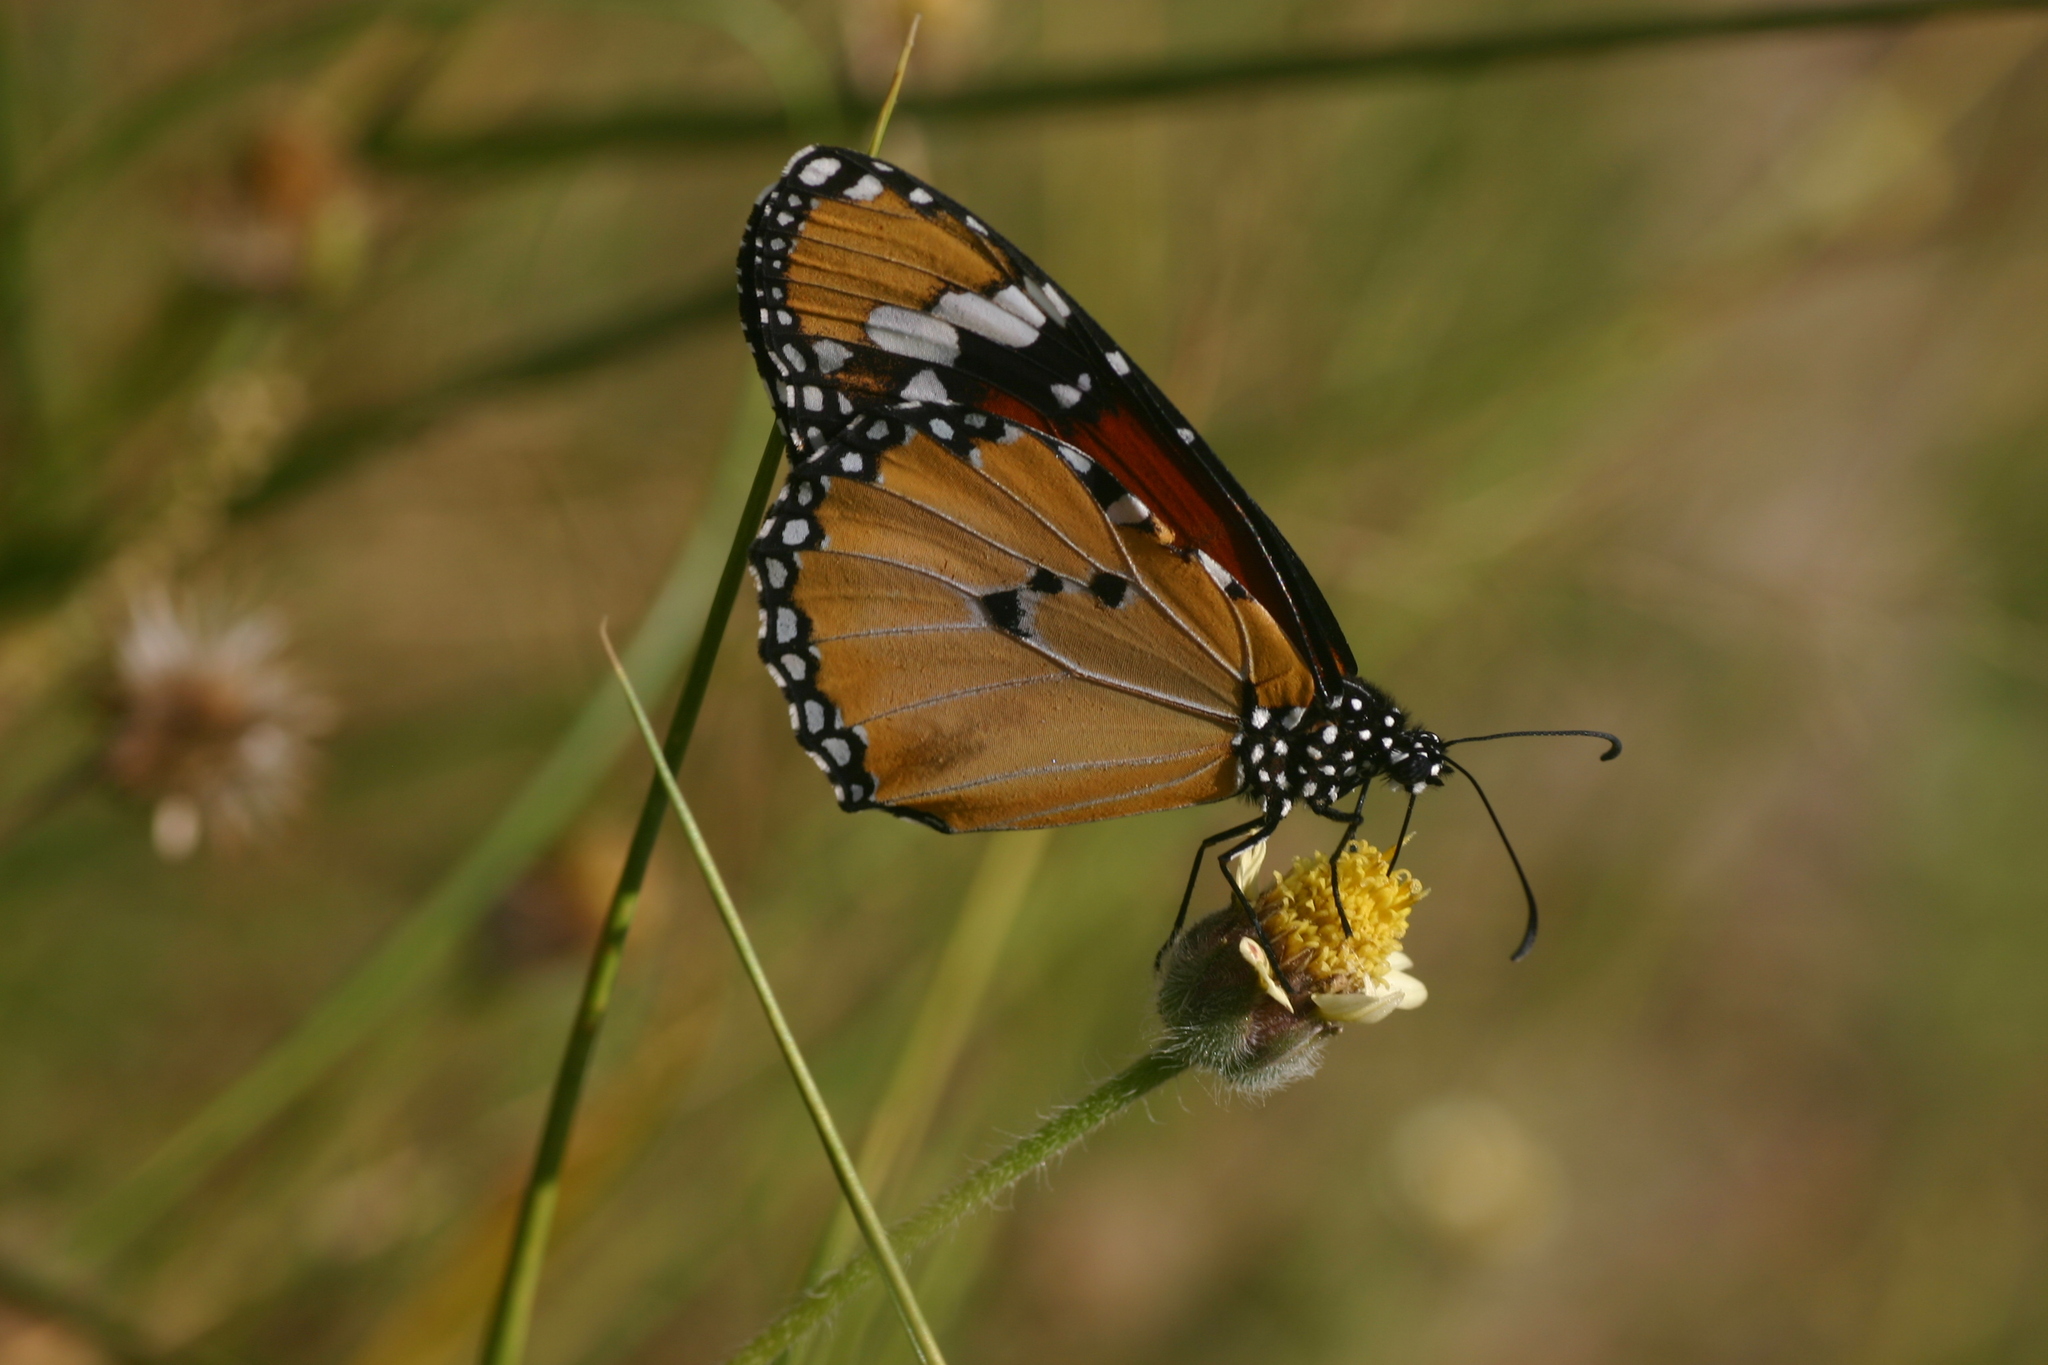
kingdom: Animalia
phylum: Arthropoda
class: Insecta
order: Lepidoptera
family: Nymphalidae
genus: Danaus
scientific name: Danaus chrysippus
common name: Plain tiger
